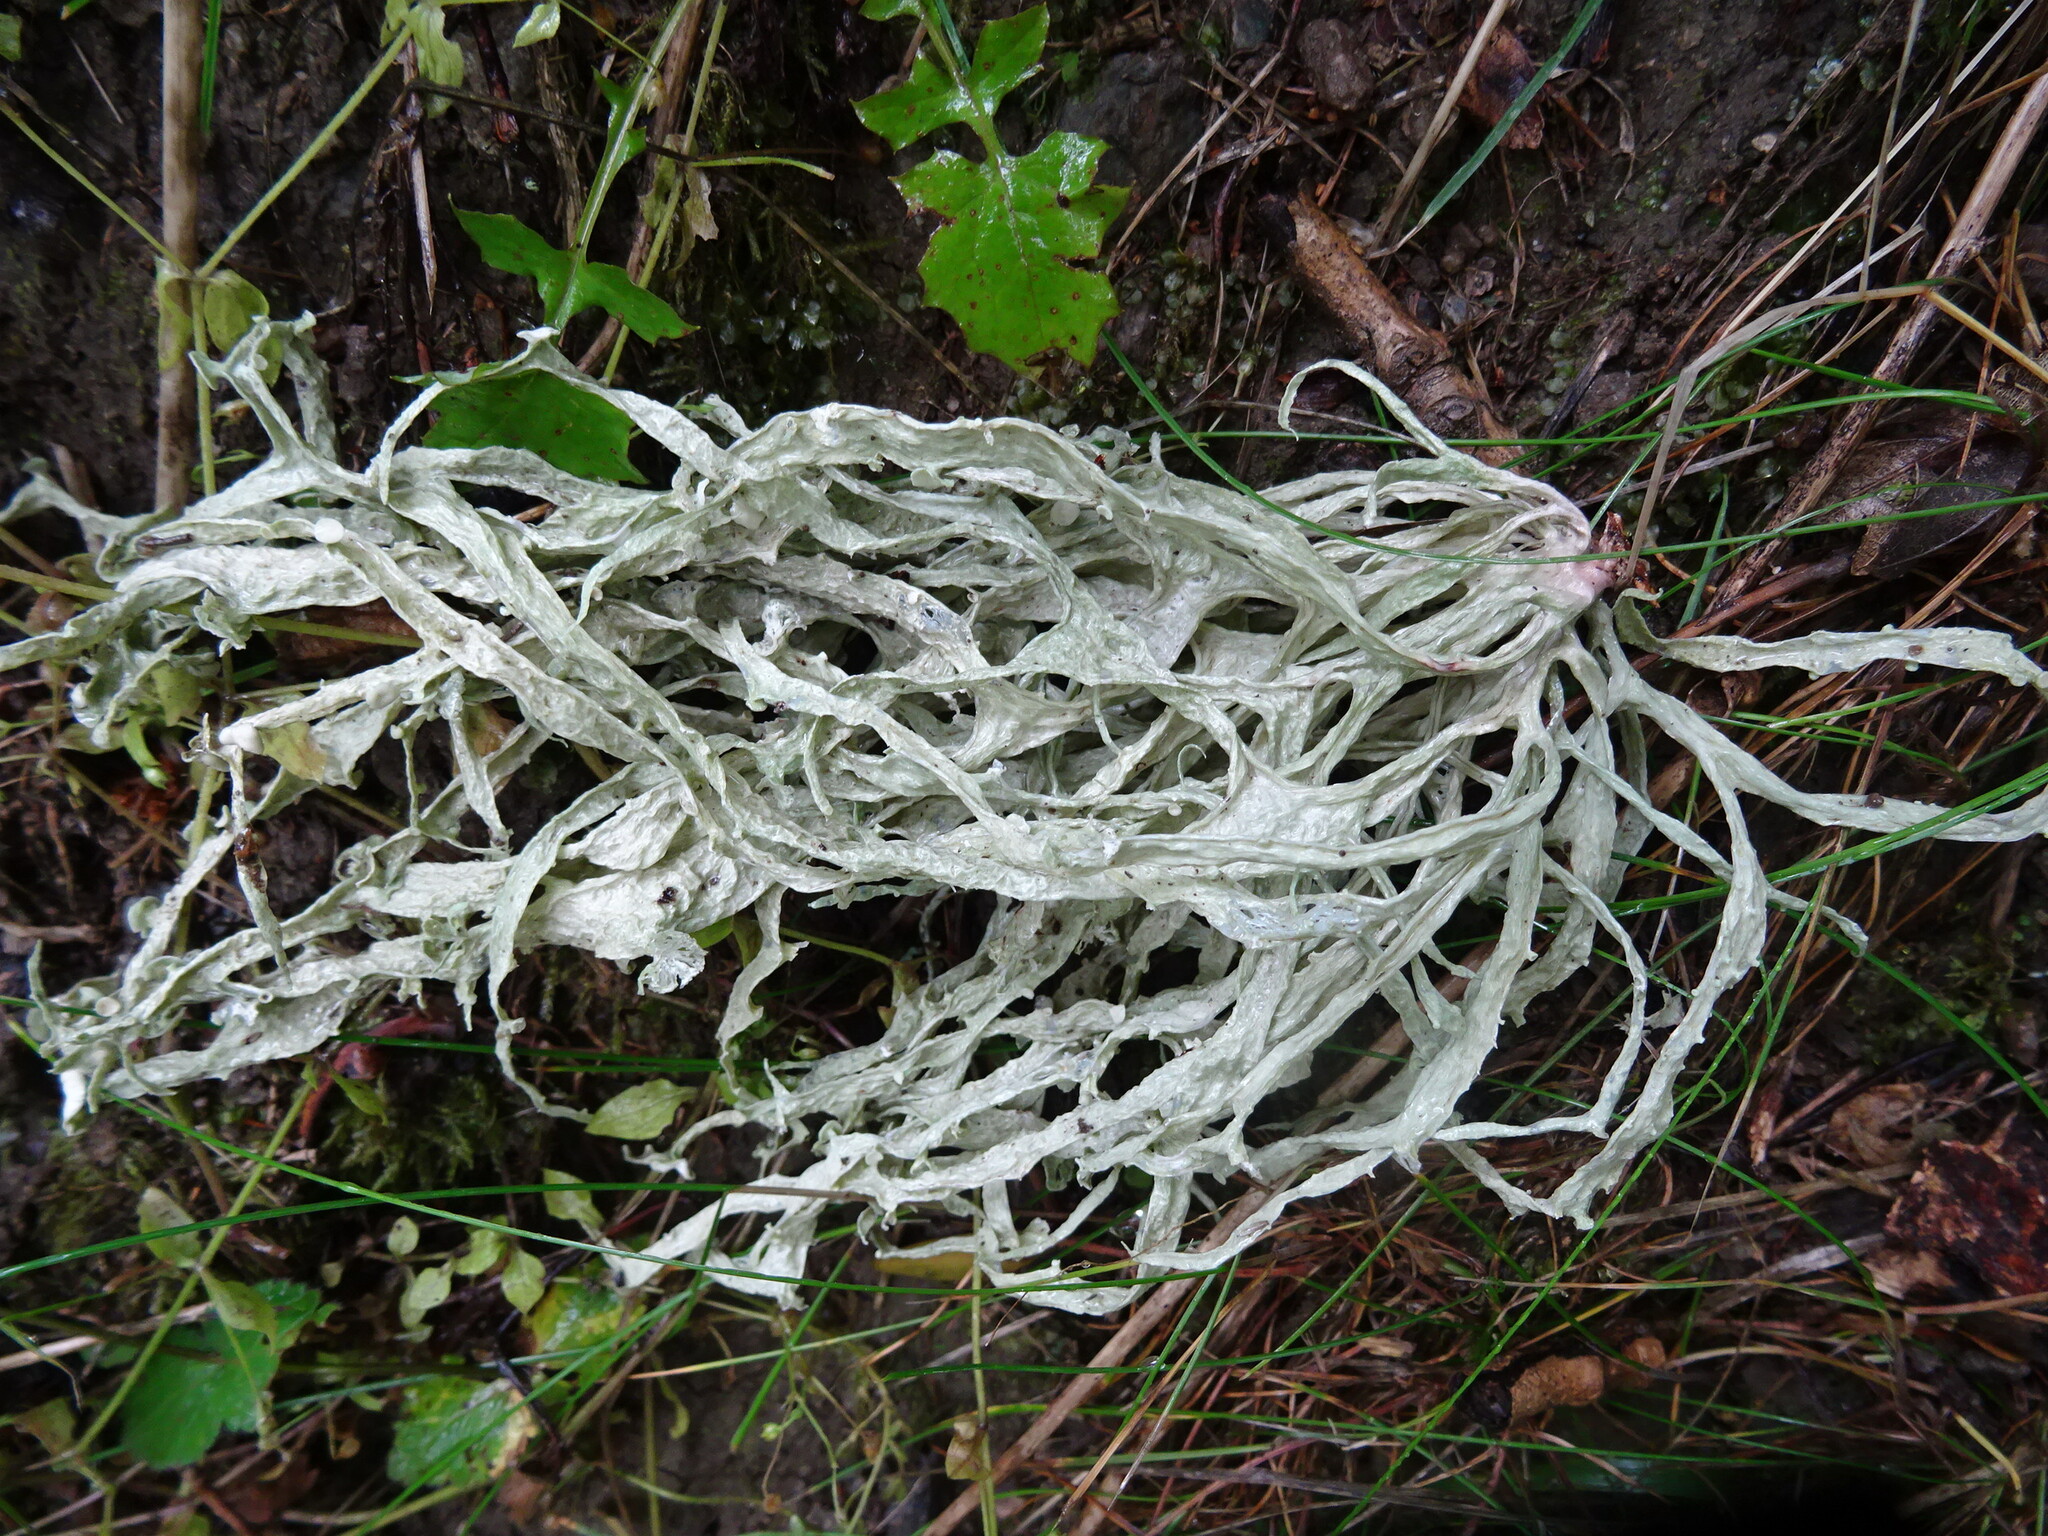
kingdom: Fungi
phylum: Ascomycota
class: Lecanoromycetes
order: Lecanorales
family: Ramalinaceae
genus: Ramalina
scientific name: Ramalina fraxinea
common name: Cartilage lichen
